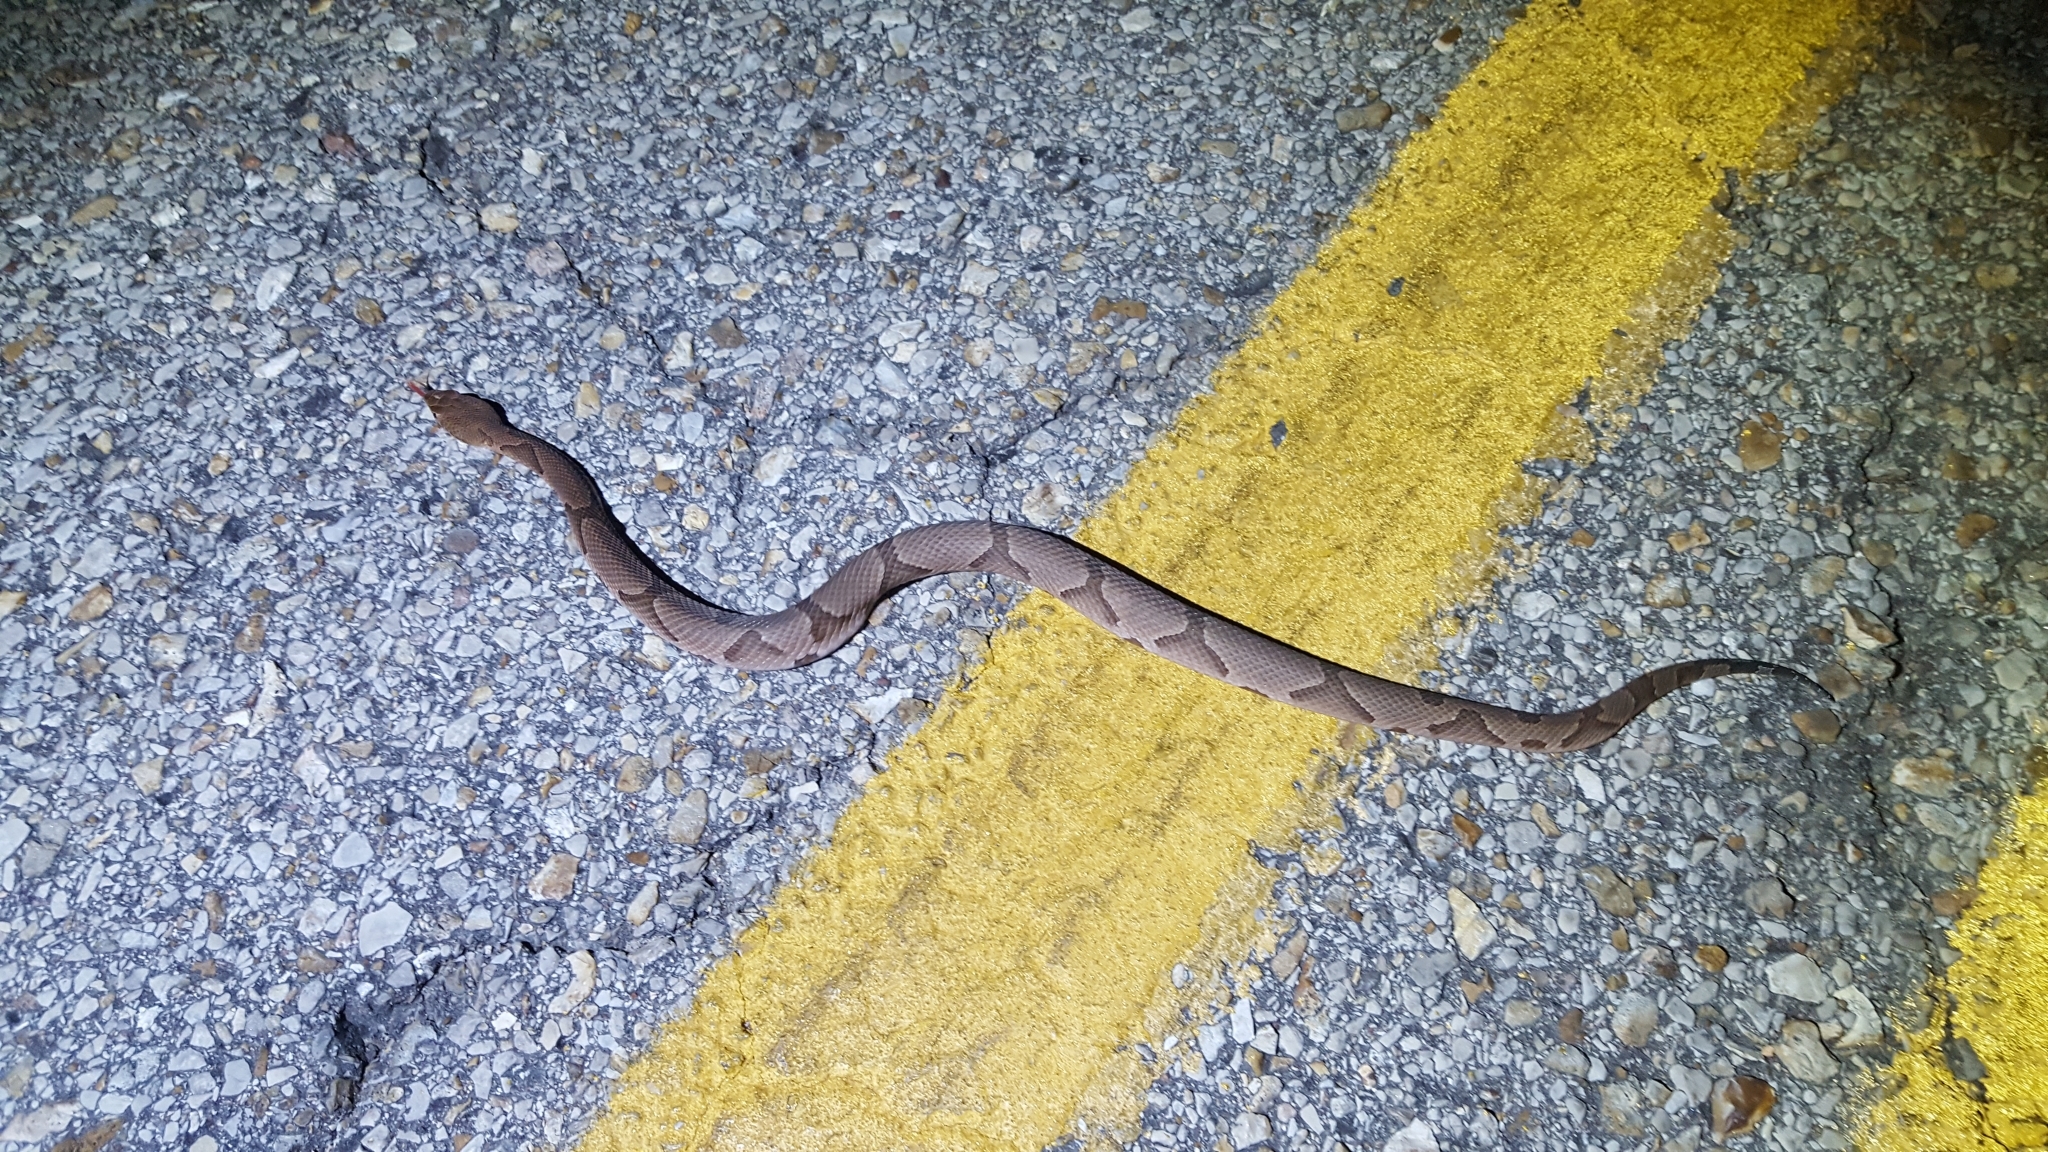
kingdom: Animalia
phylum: Chordata
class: Squamata
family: Viperidae
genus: Agkistrodon
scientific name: Agkistrodon contortrix
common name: Northern copperhead
